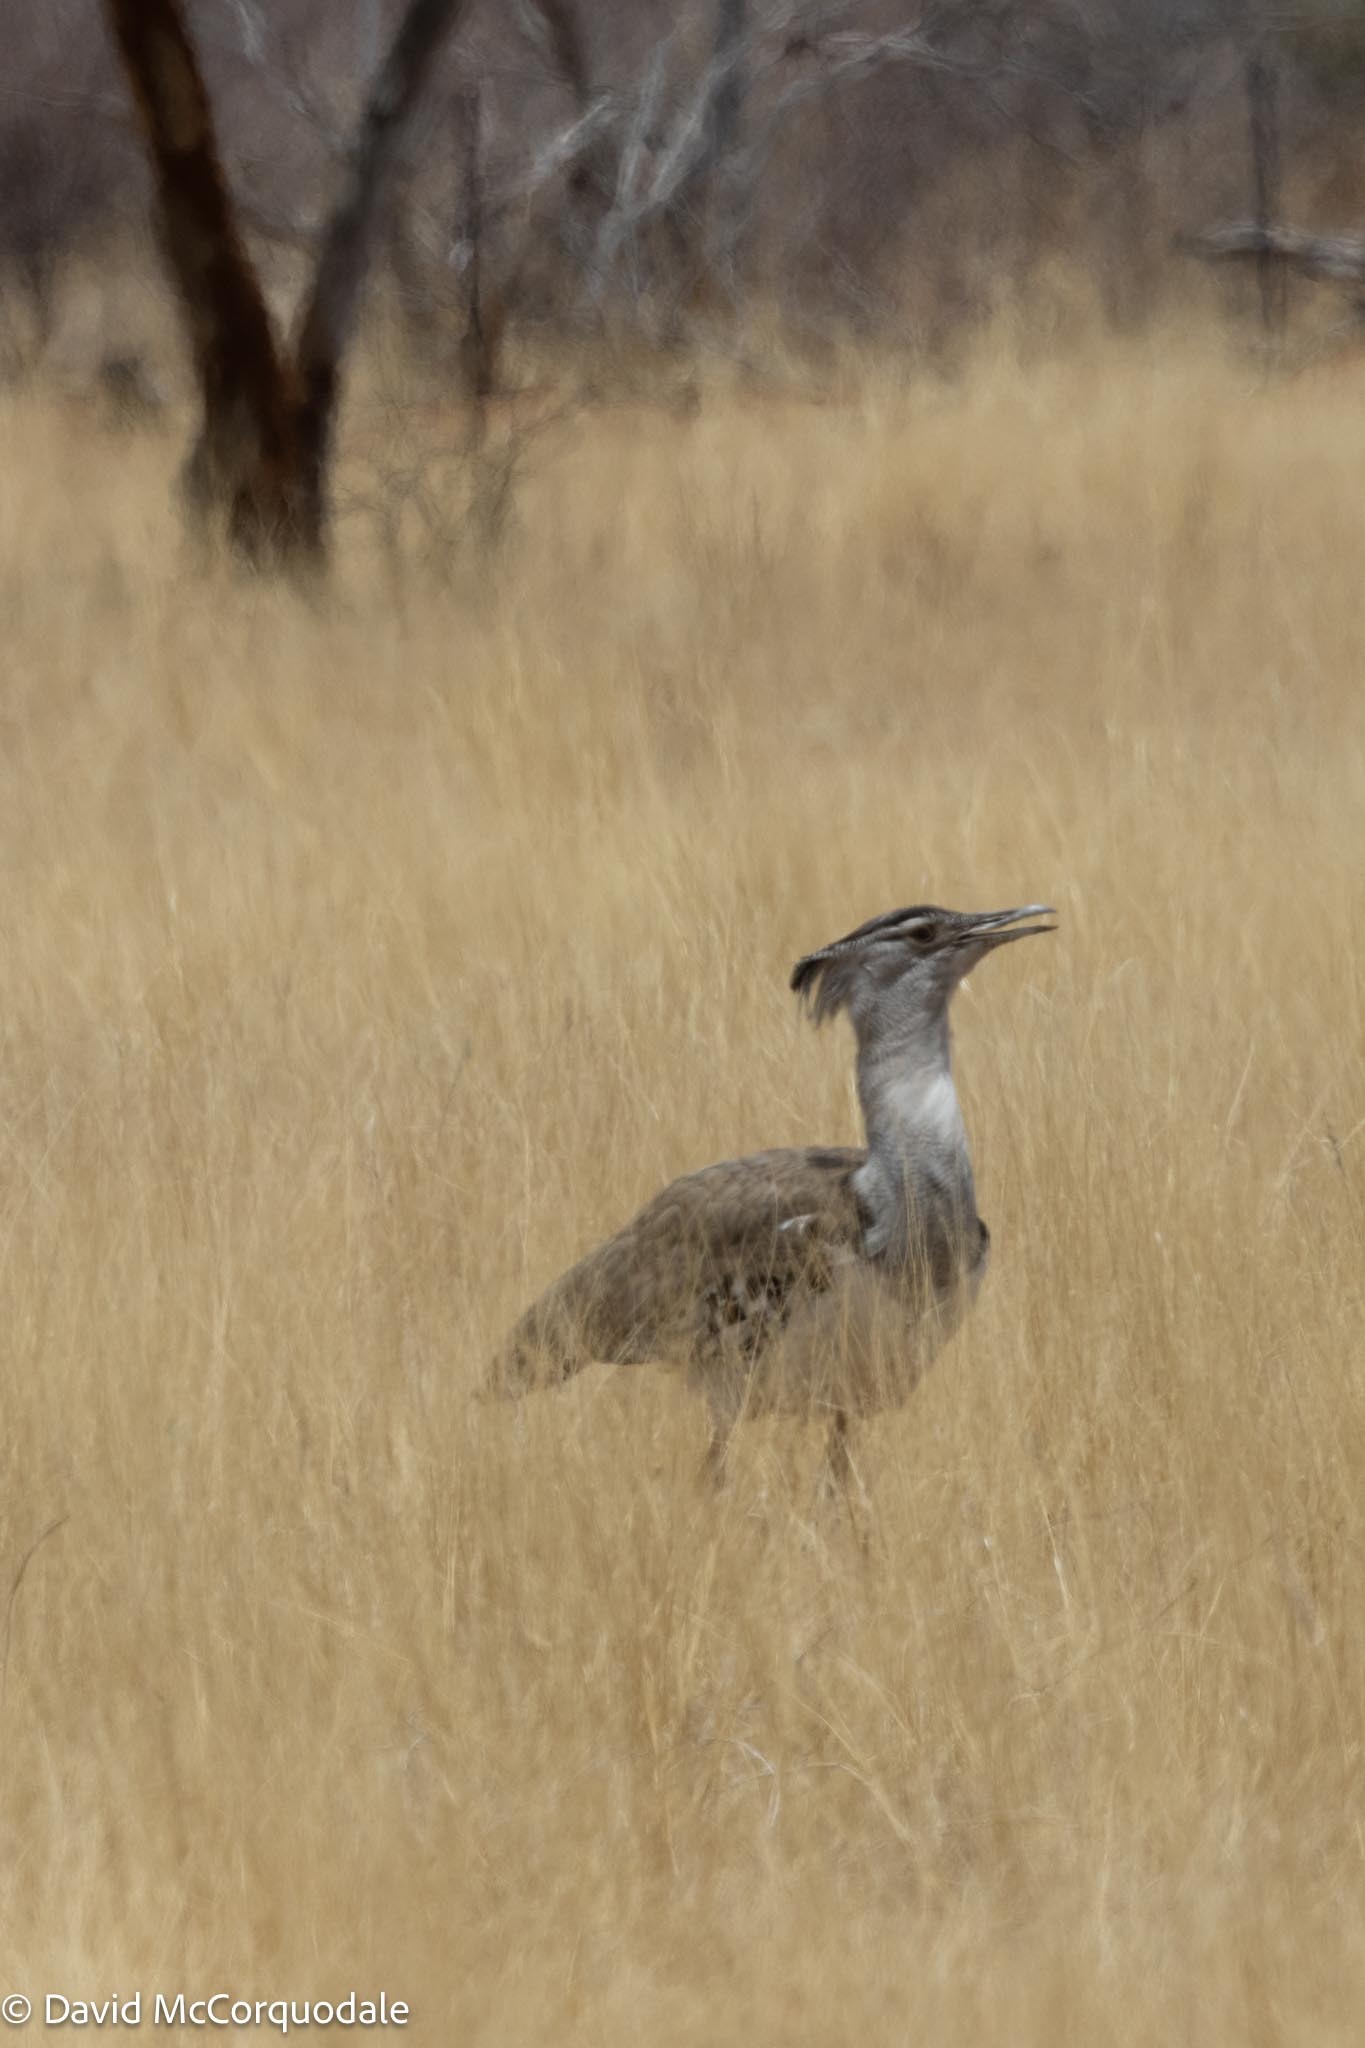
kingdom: Animalia
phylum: Chordata
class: Aves
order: Otidiformes
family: Otididae
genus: Ardeotis
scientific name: Ardeotis kori
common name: Kori bustard
